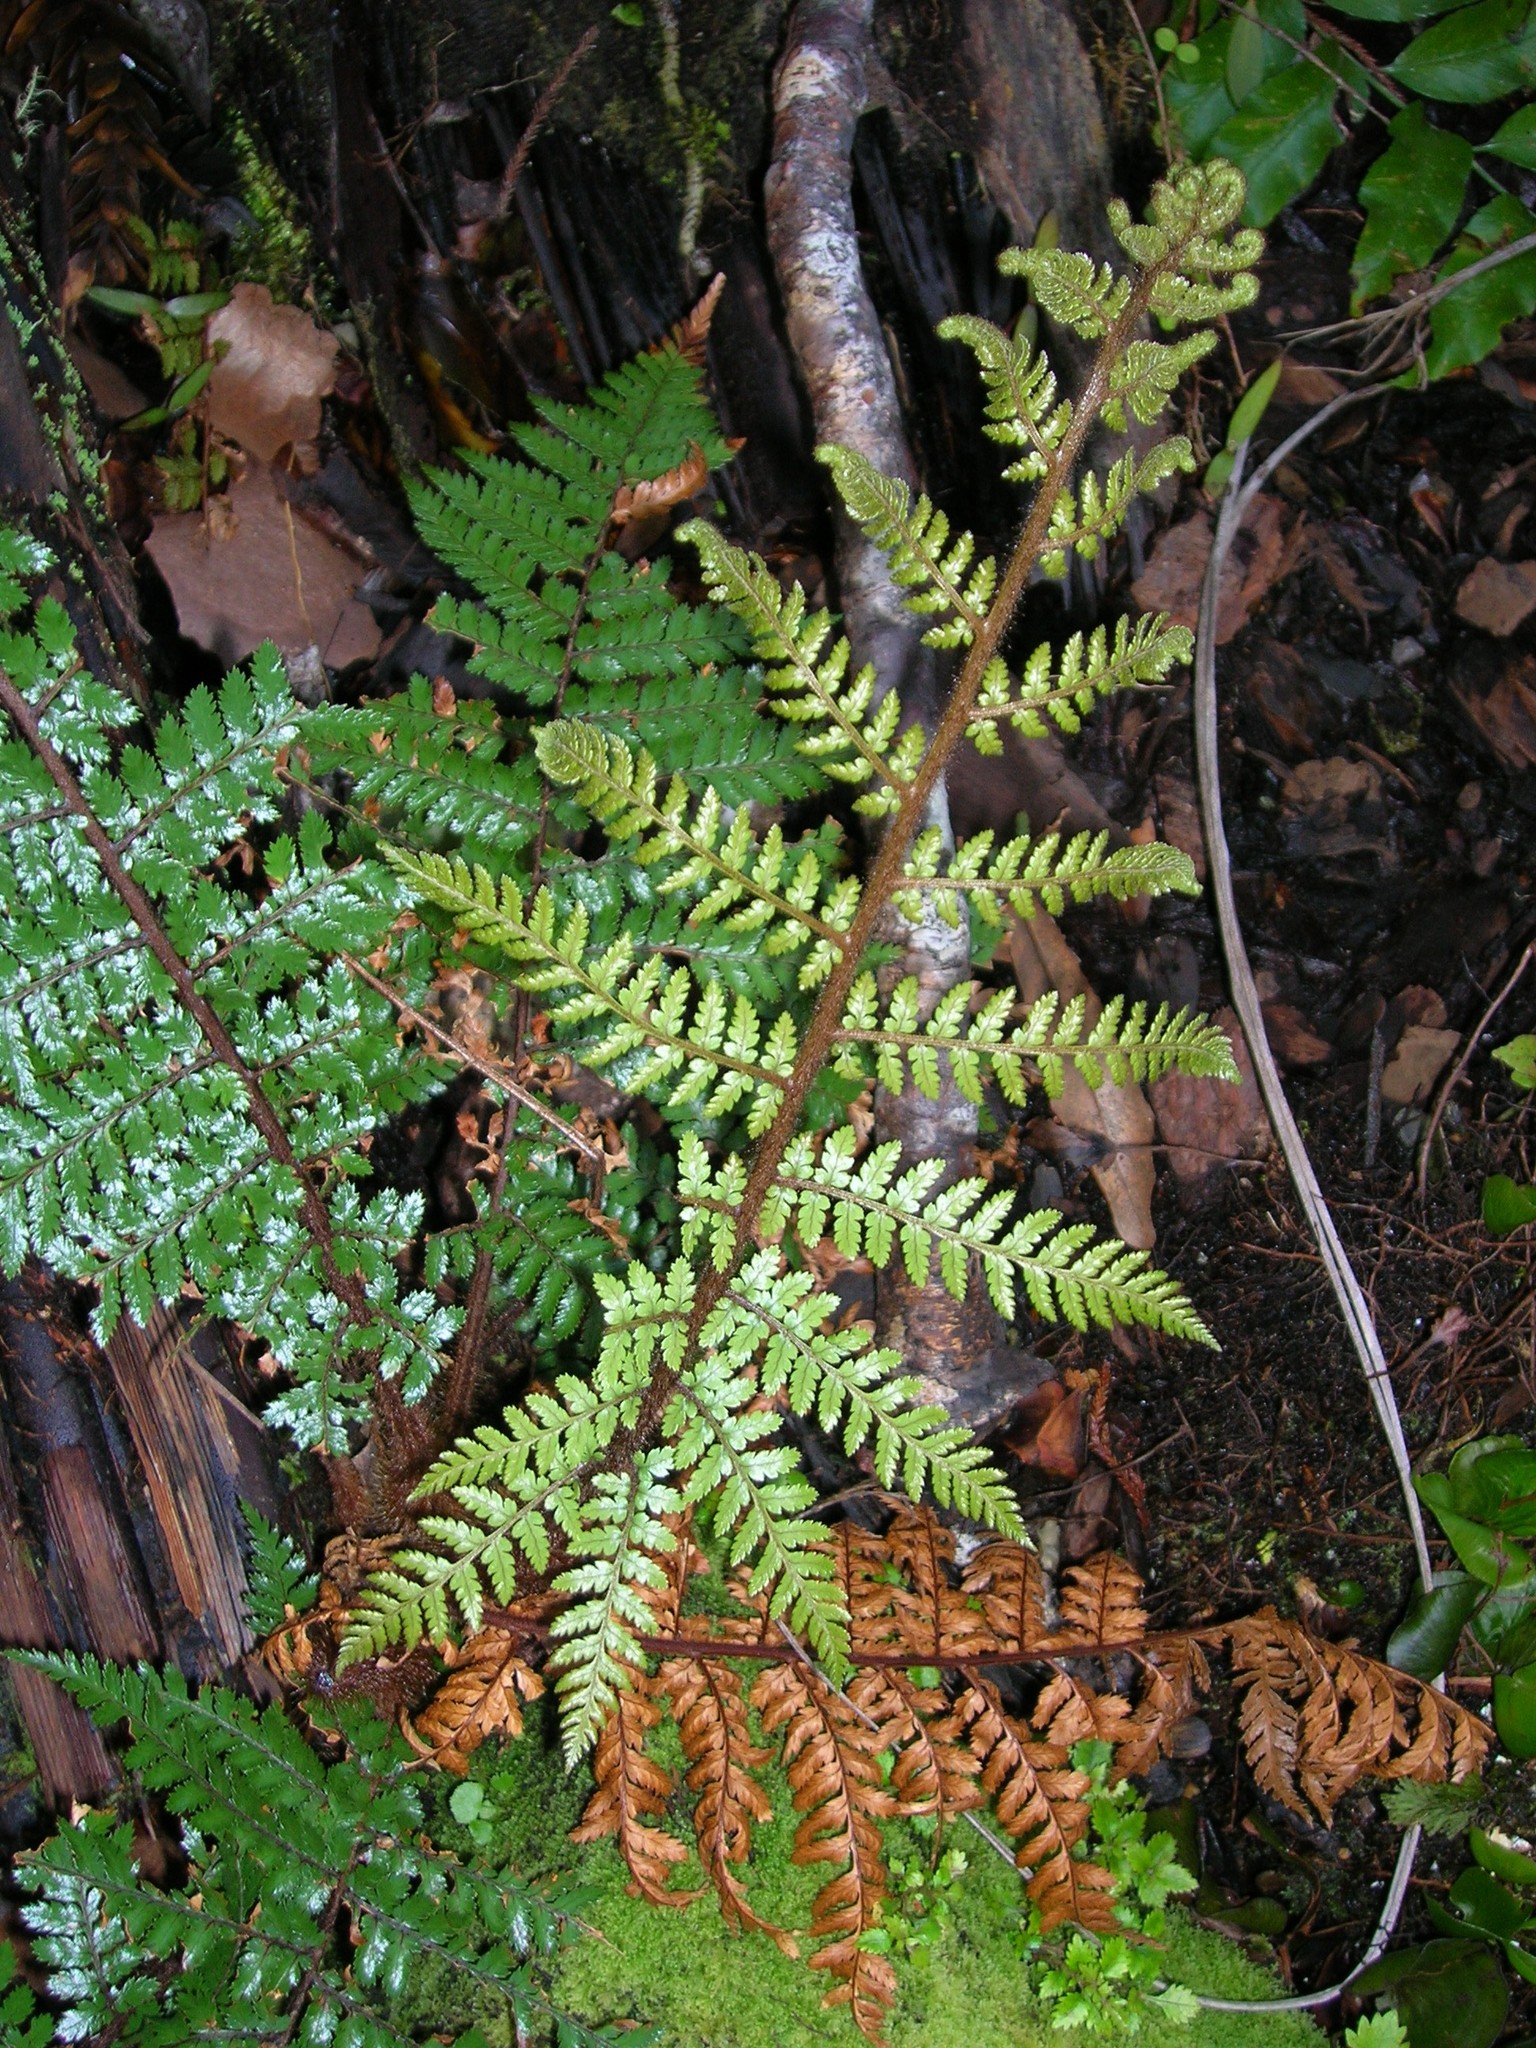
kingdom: Plantae
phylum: Tracheophyta
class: Polypodiopsida
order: Cyatheales
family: Dicksoniaceae
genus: Dicksonia
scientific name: Dicksonia squarrosa
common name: Hard treefern
